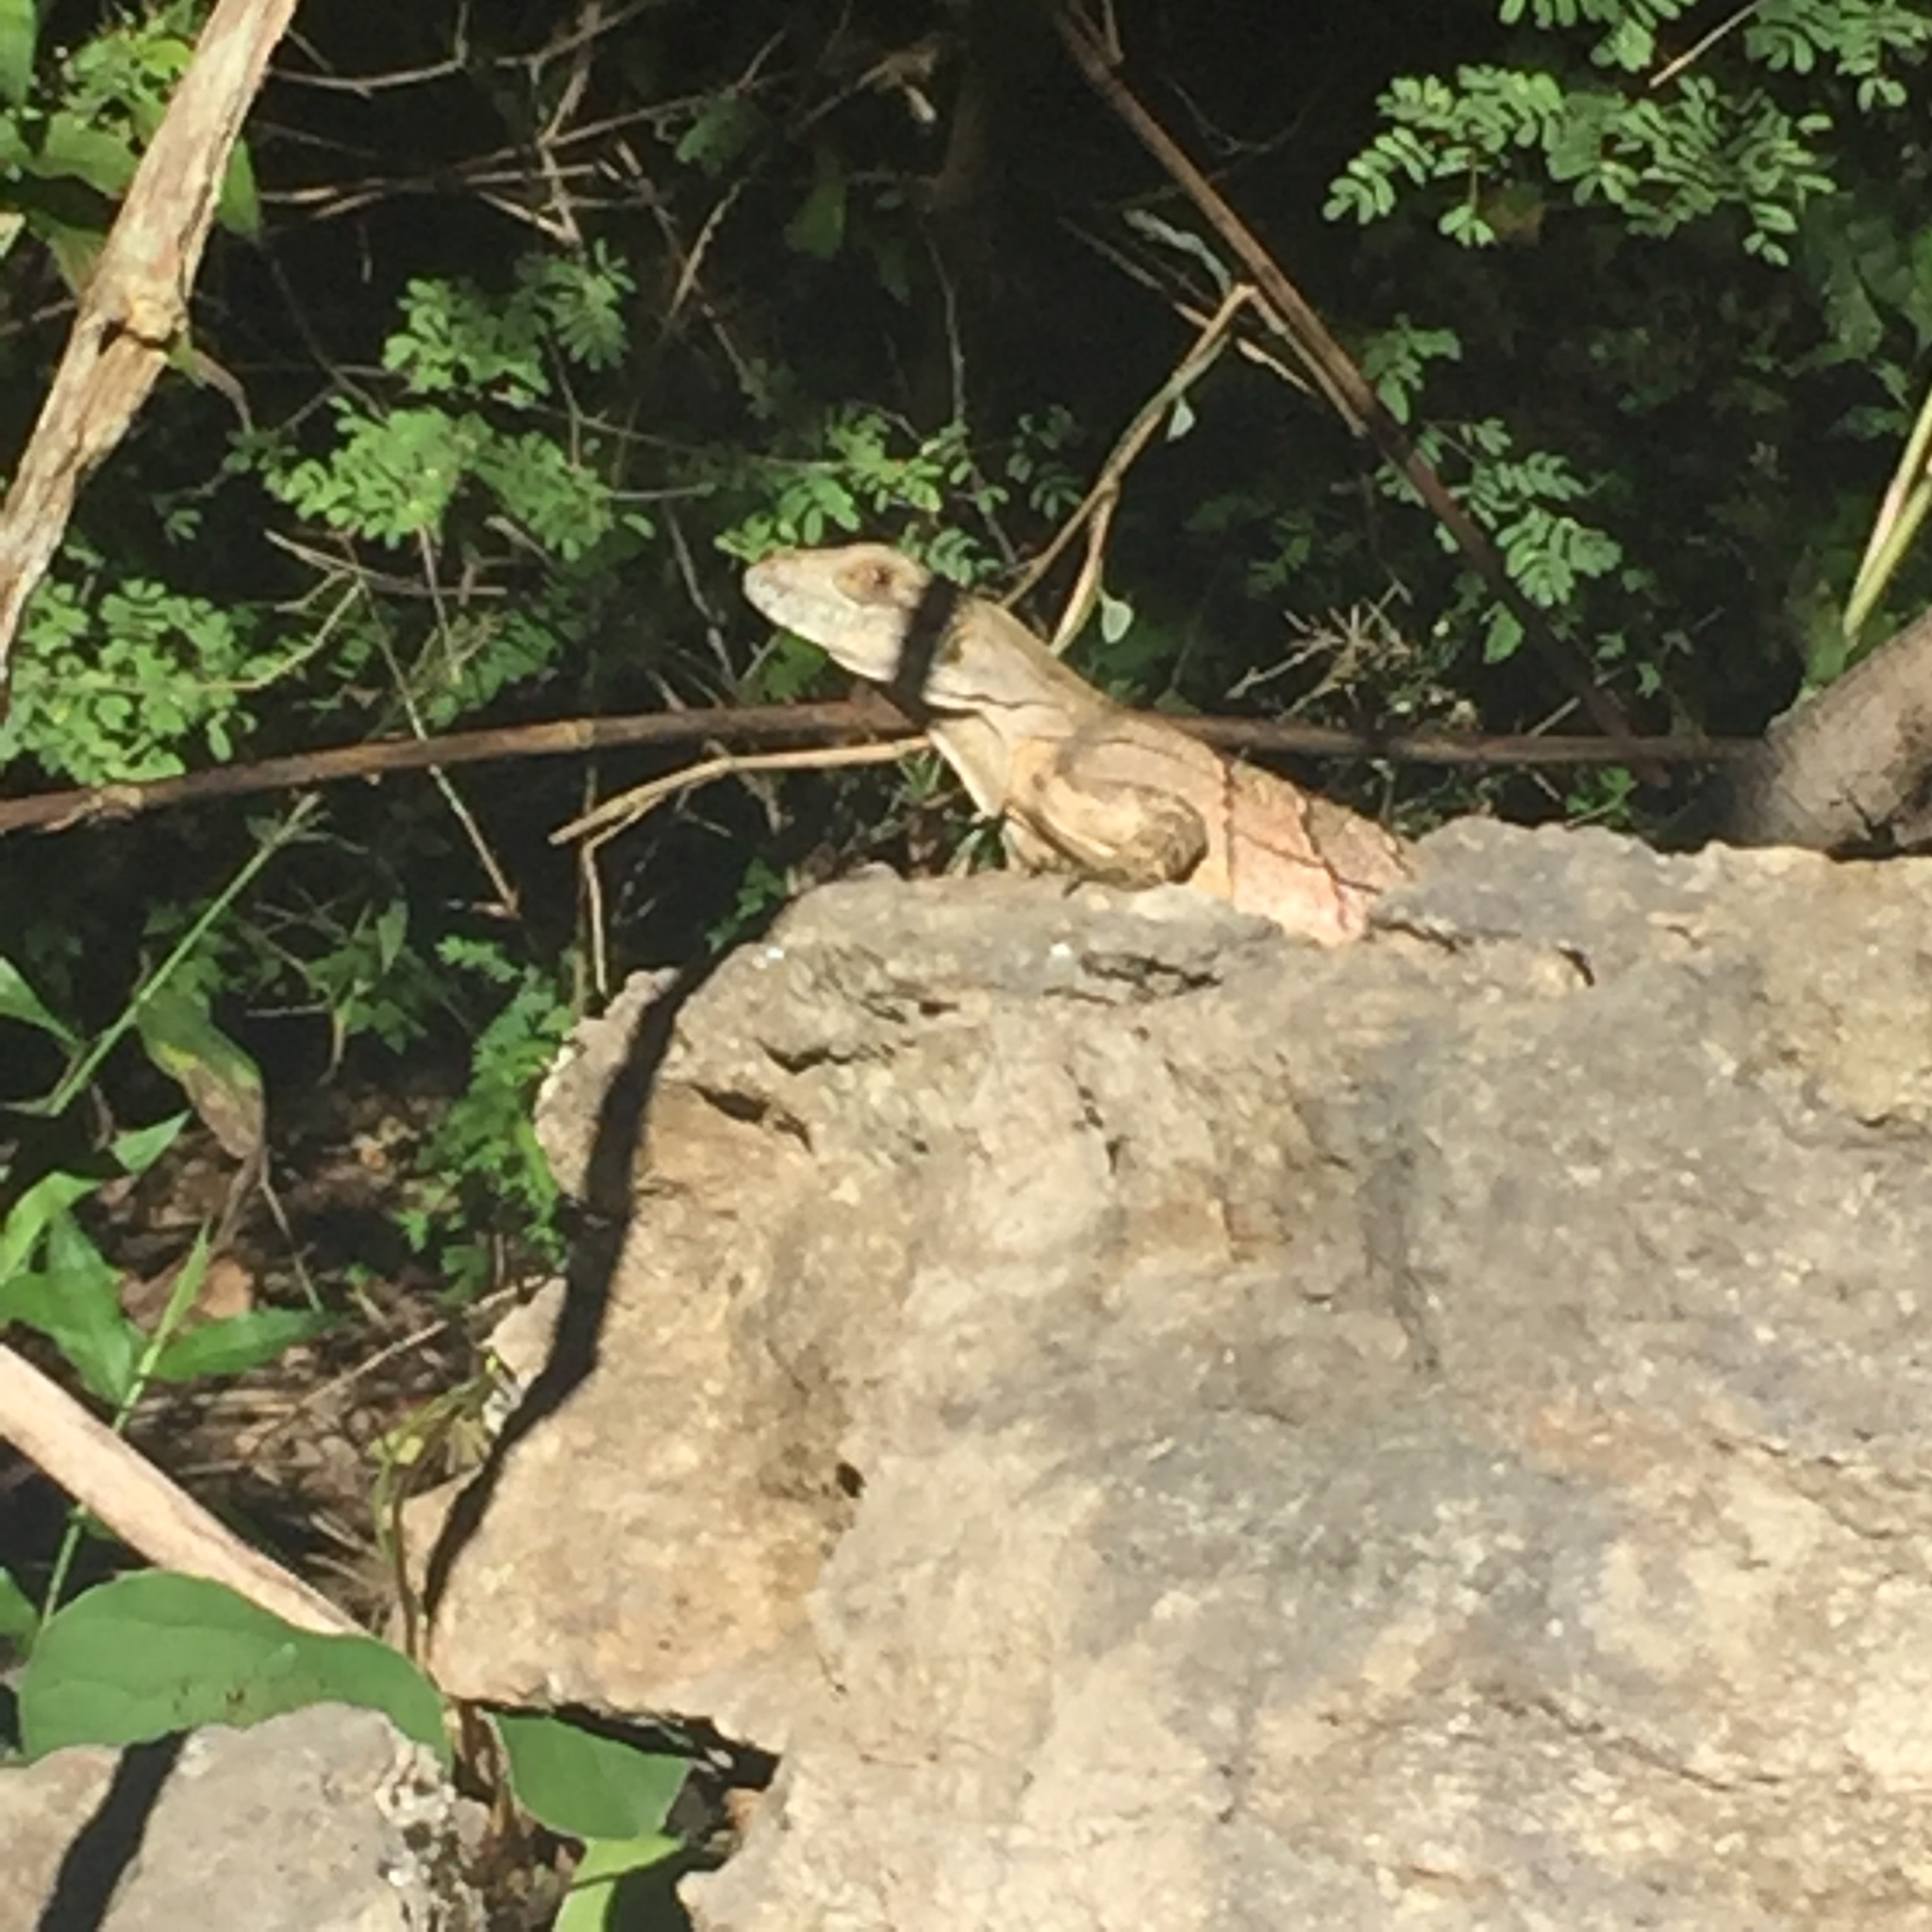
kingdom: Animalia
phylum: Chordata
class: Squamata
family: Iguanidae
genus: Ctenosaura
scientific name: Ctenosaura similis
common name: Black spiny-tailed iguana
